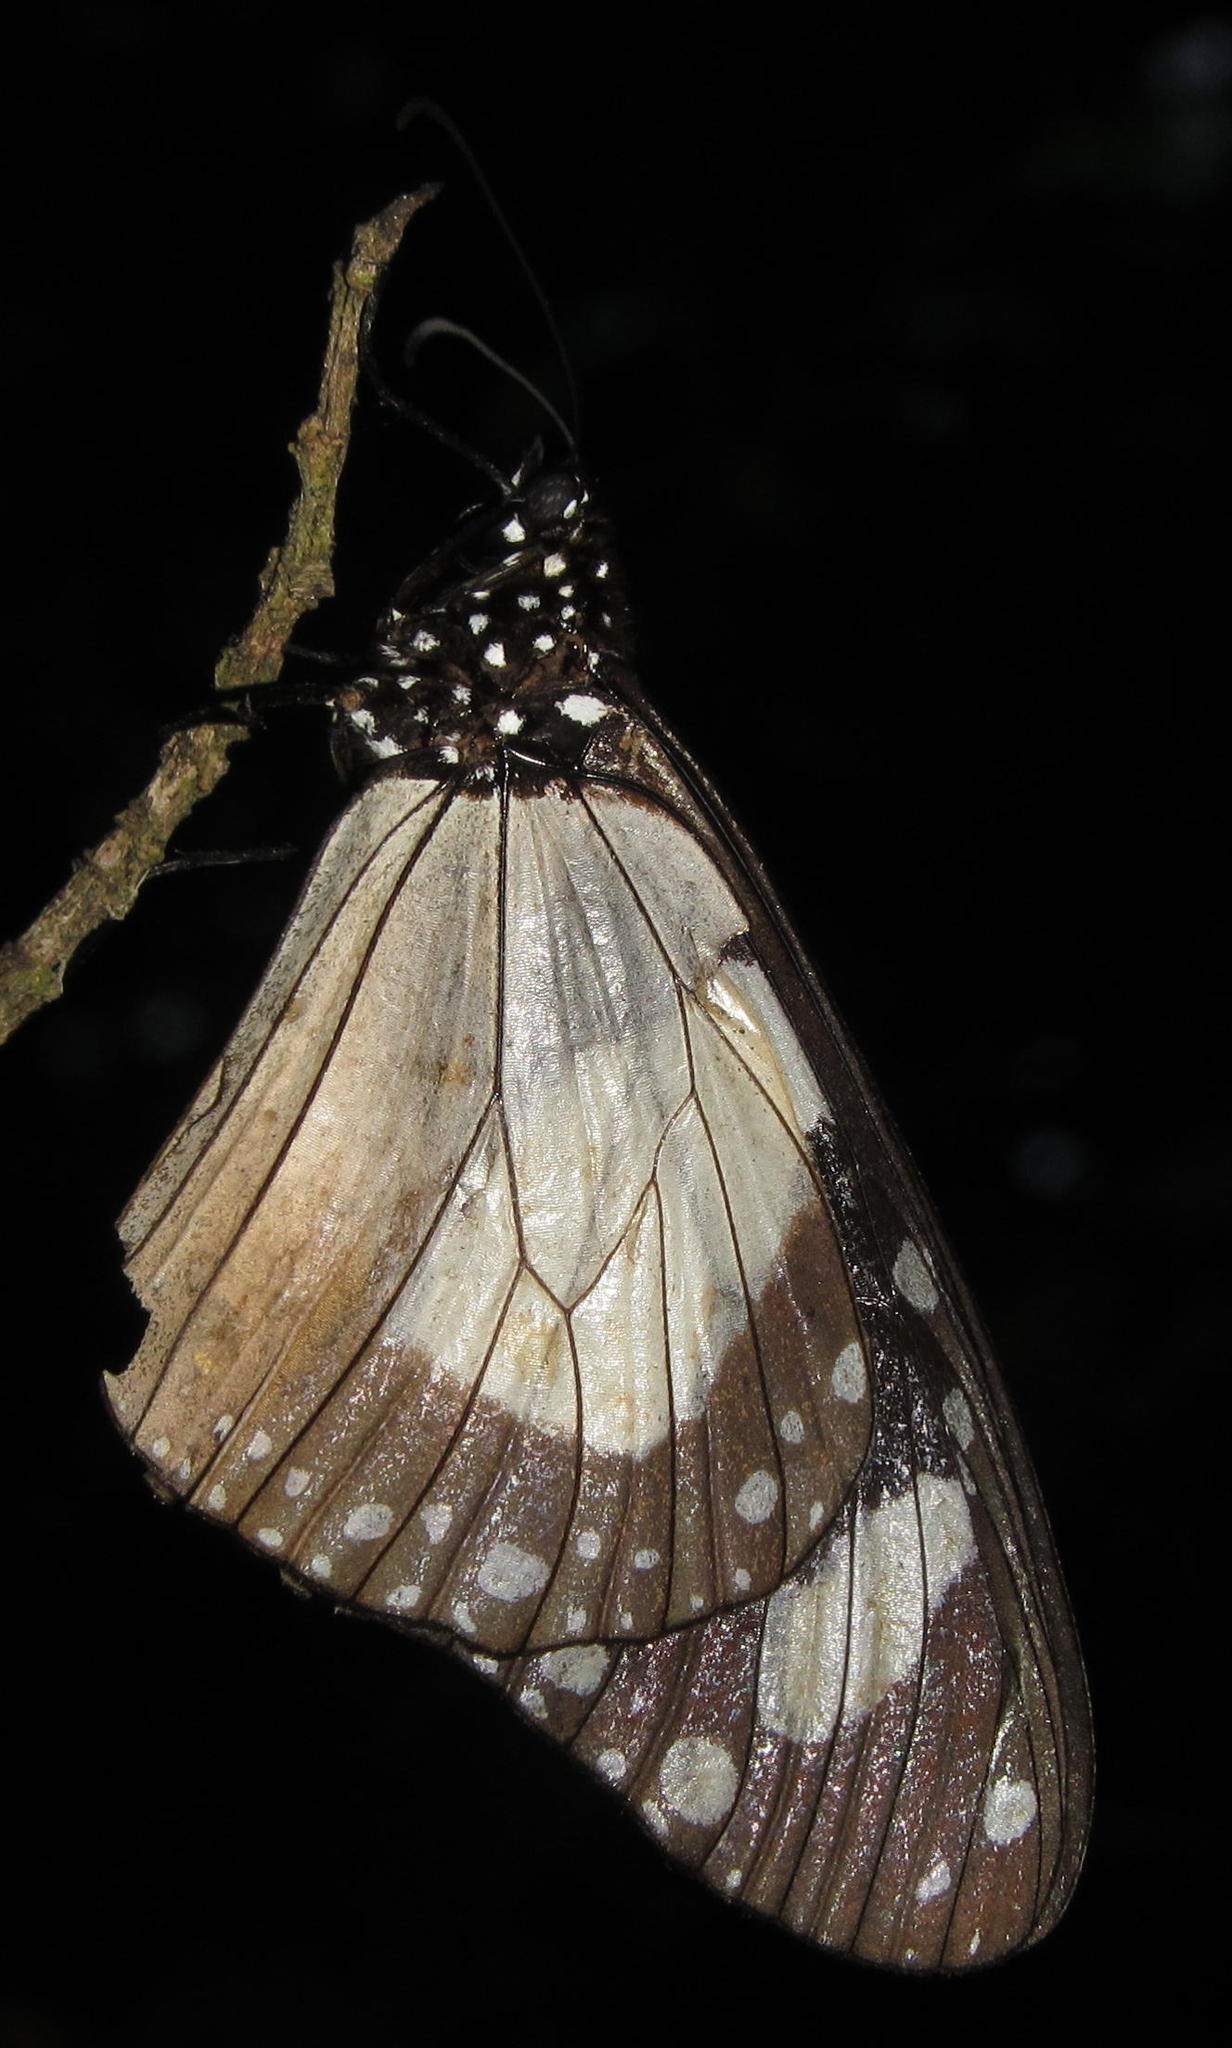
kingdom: Animalia
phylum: Arthropoda
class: Insecta
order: Lepidoptera
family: Nymphalidae
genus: Amauris
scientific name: Amauris ochlea
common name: Novice
